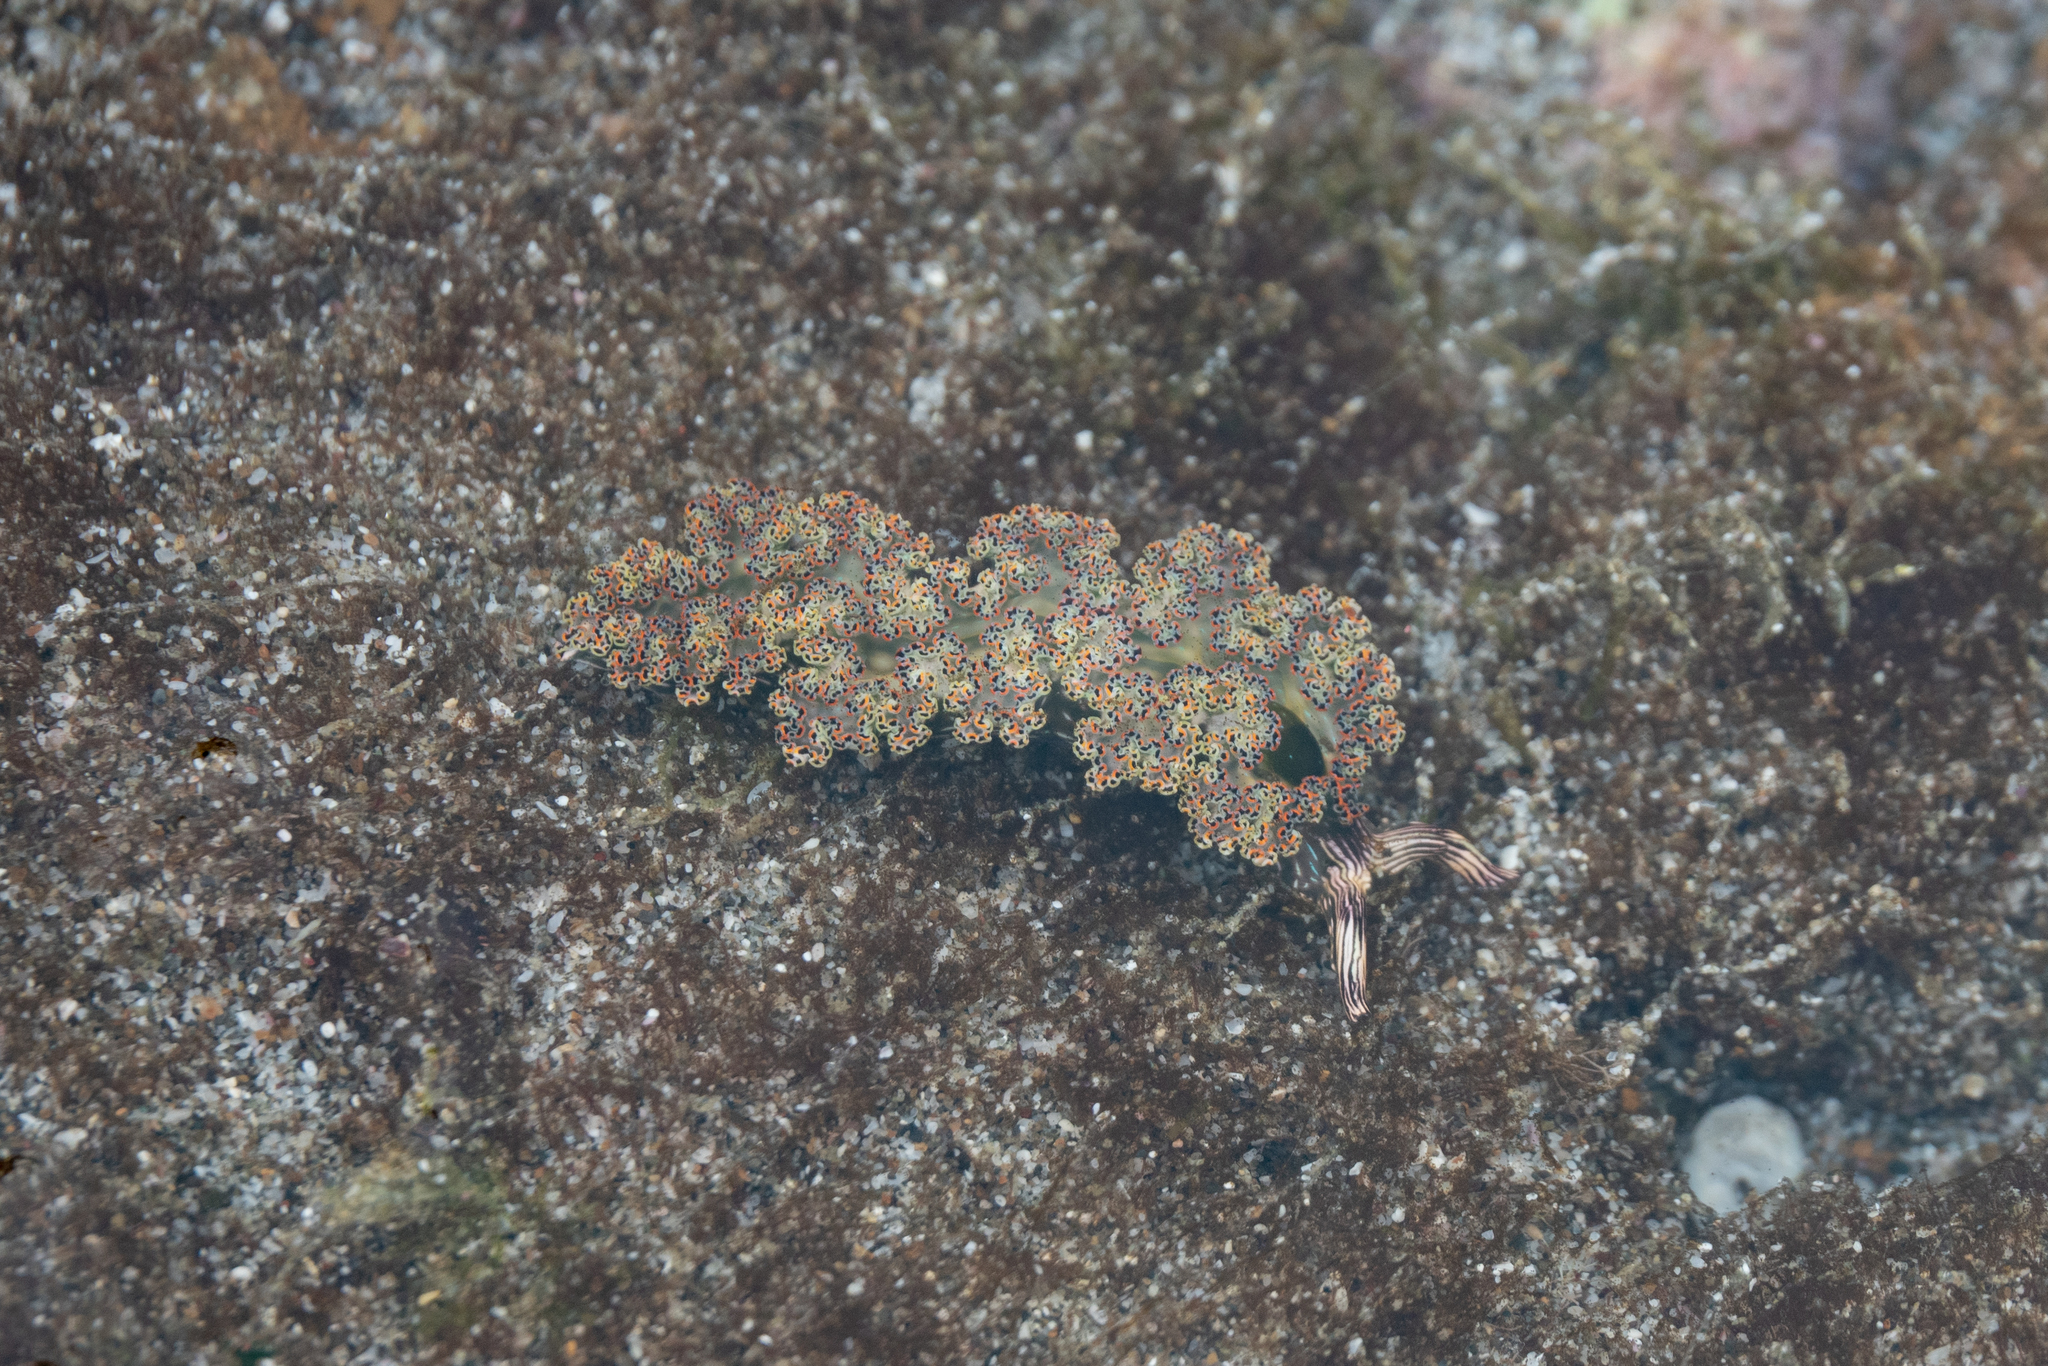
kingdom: Animalia
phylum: Mollusca
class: Gastropoda
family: Plakobranchidae
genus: Elysia
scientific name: Elysia diomedea
